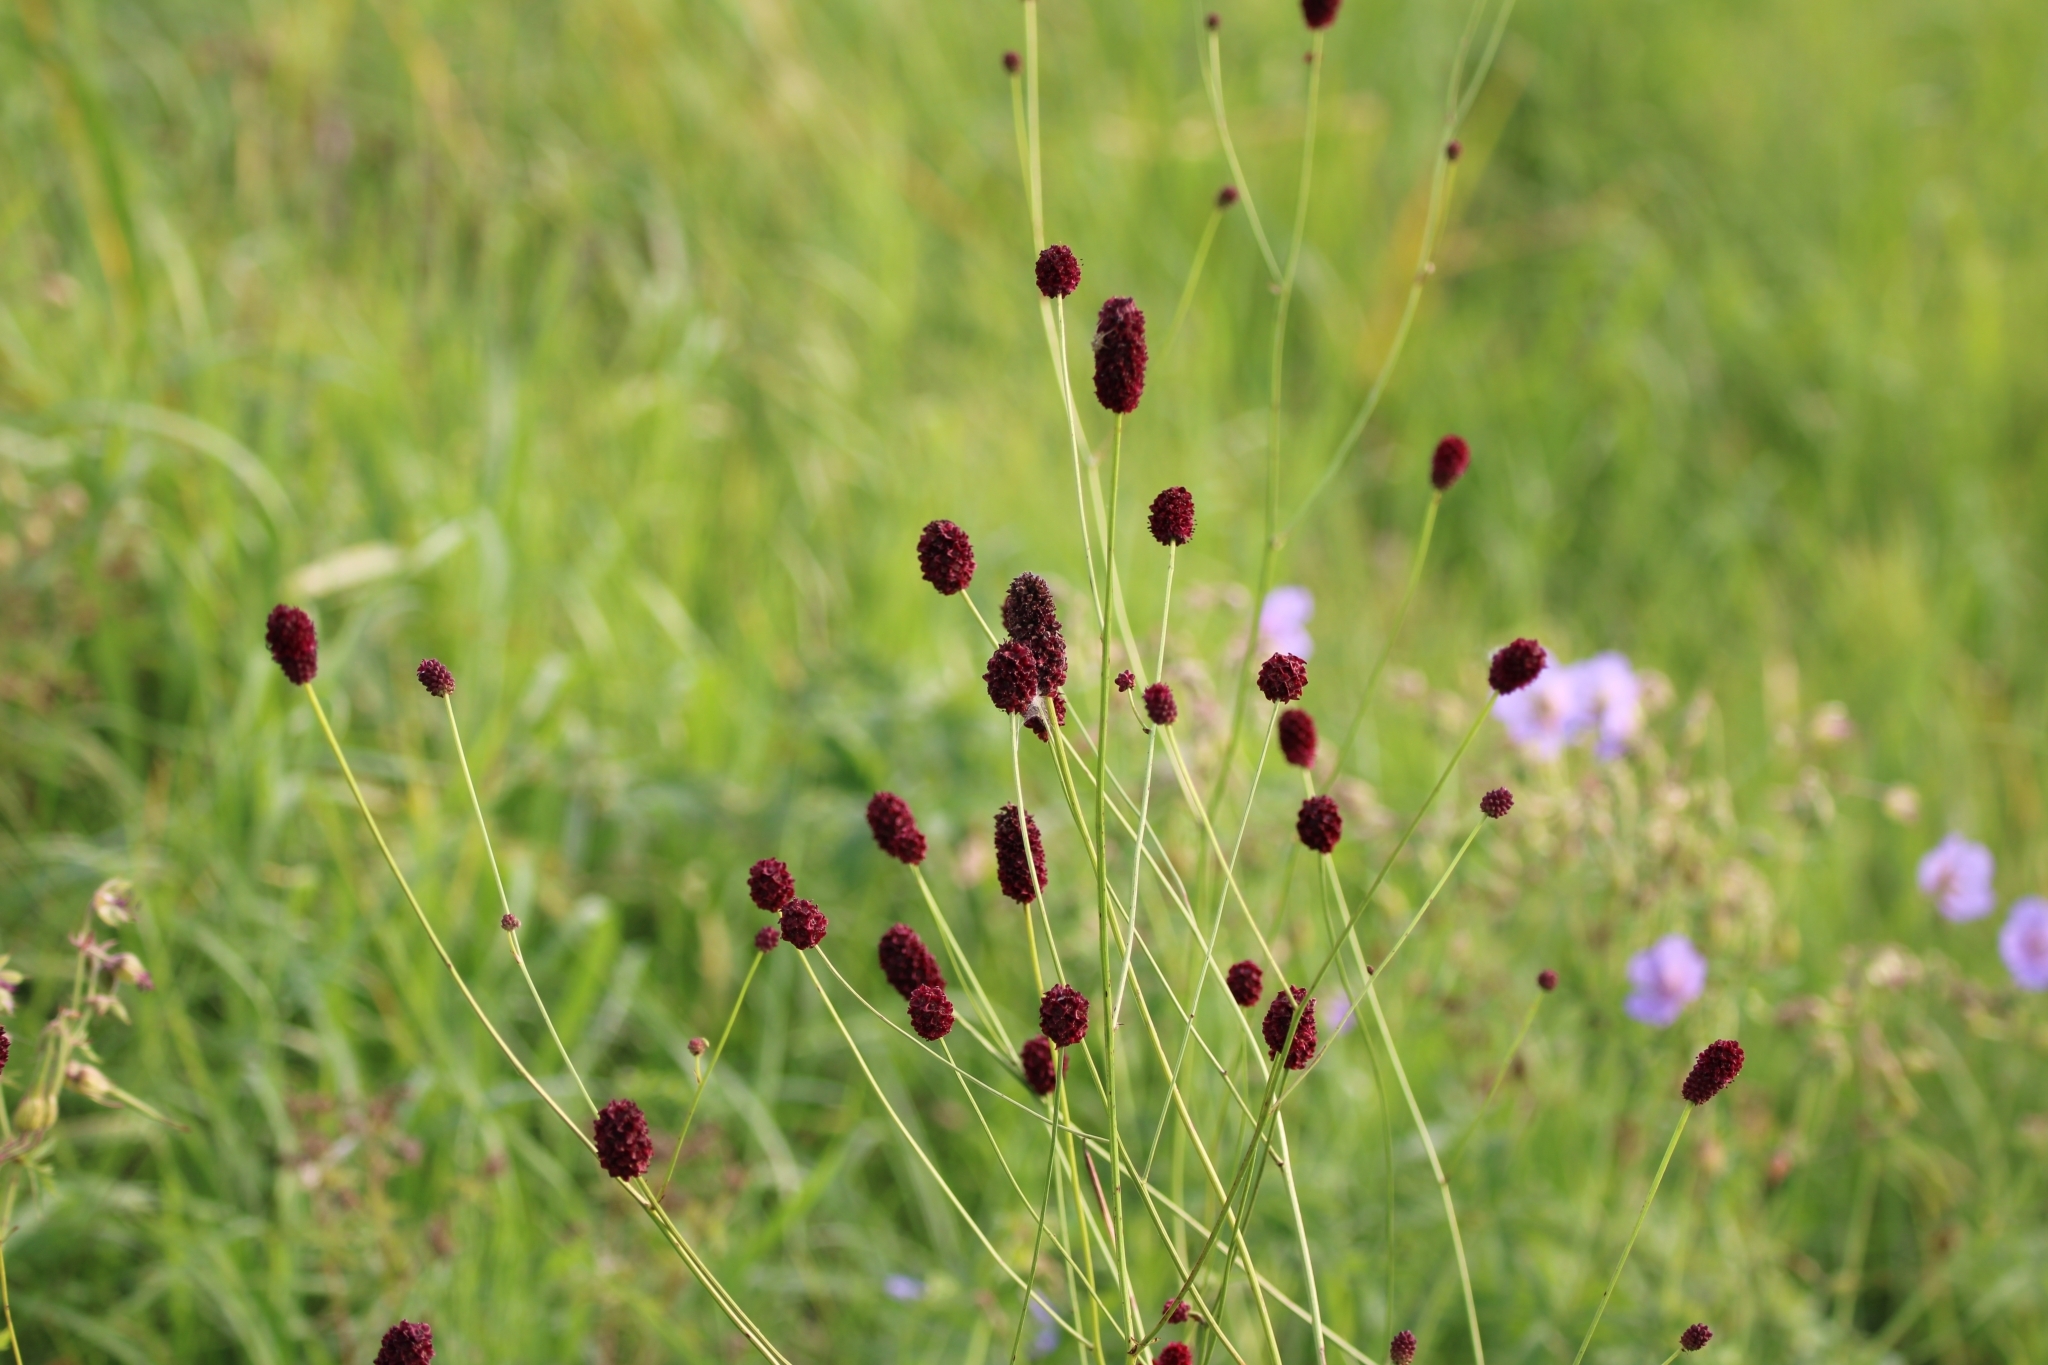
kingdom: Plantae
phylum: Tracheophyta
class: Magnoliopsida
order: Rosales
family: Rosaceae
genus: Sanguisorba
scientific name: Sanguisorba officinalis
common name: Great burnet
